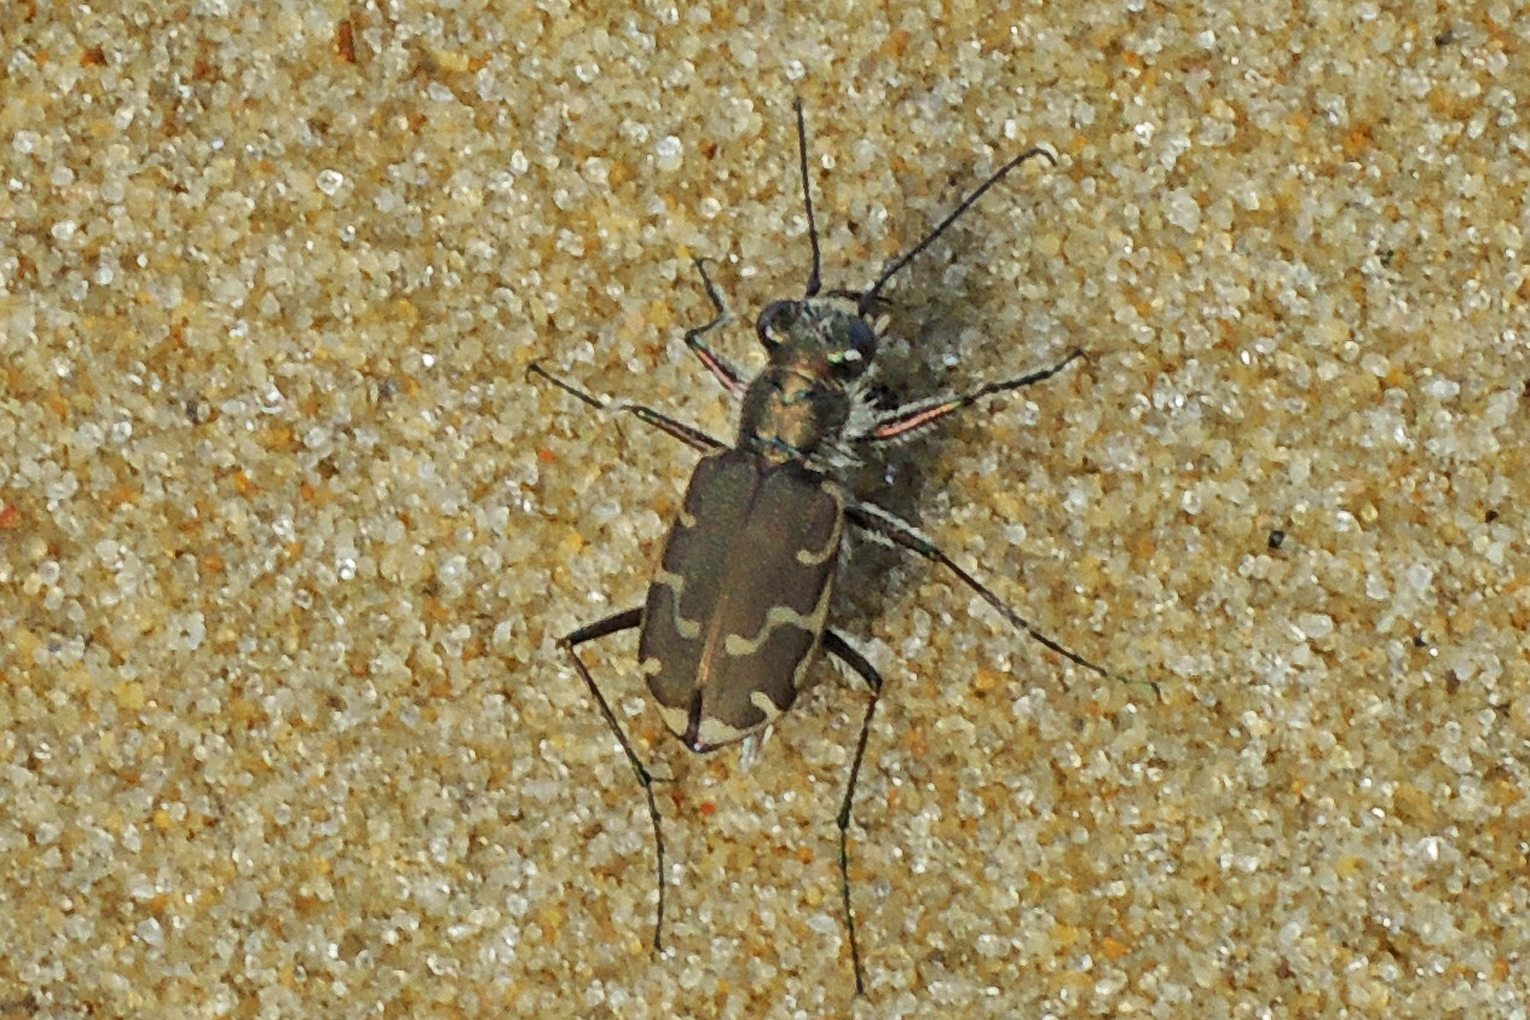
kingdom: Animalia
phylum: Arthropoda
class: Insecta
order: Coleoptera
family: Carabidae
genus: Cicindela
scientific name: Cicindela repanda
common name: Bronzed tiger beetle
